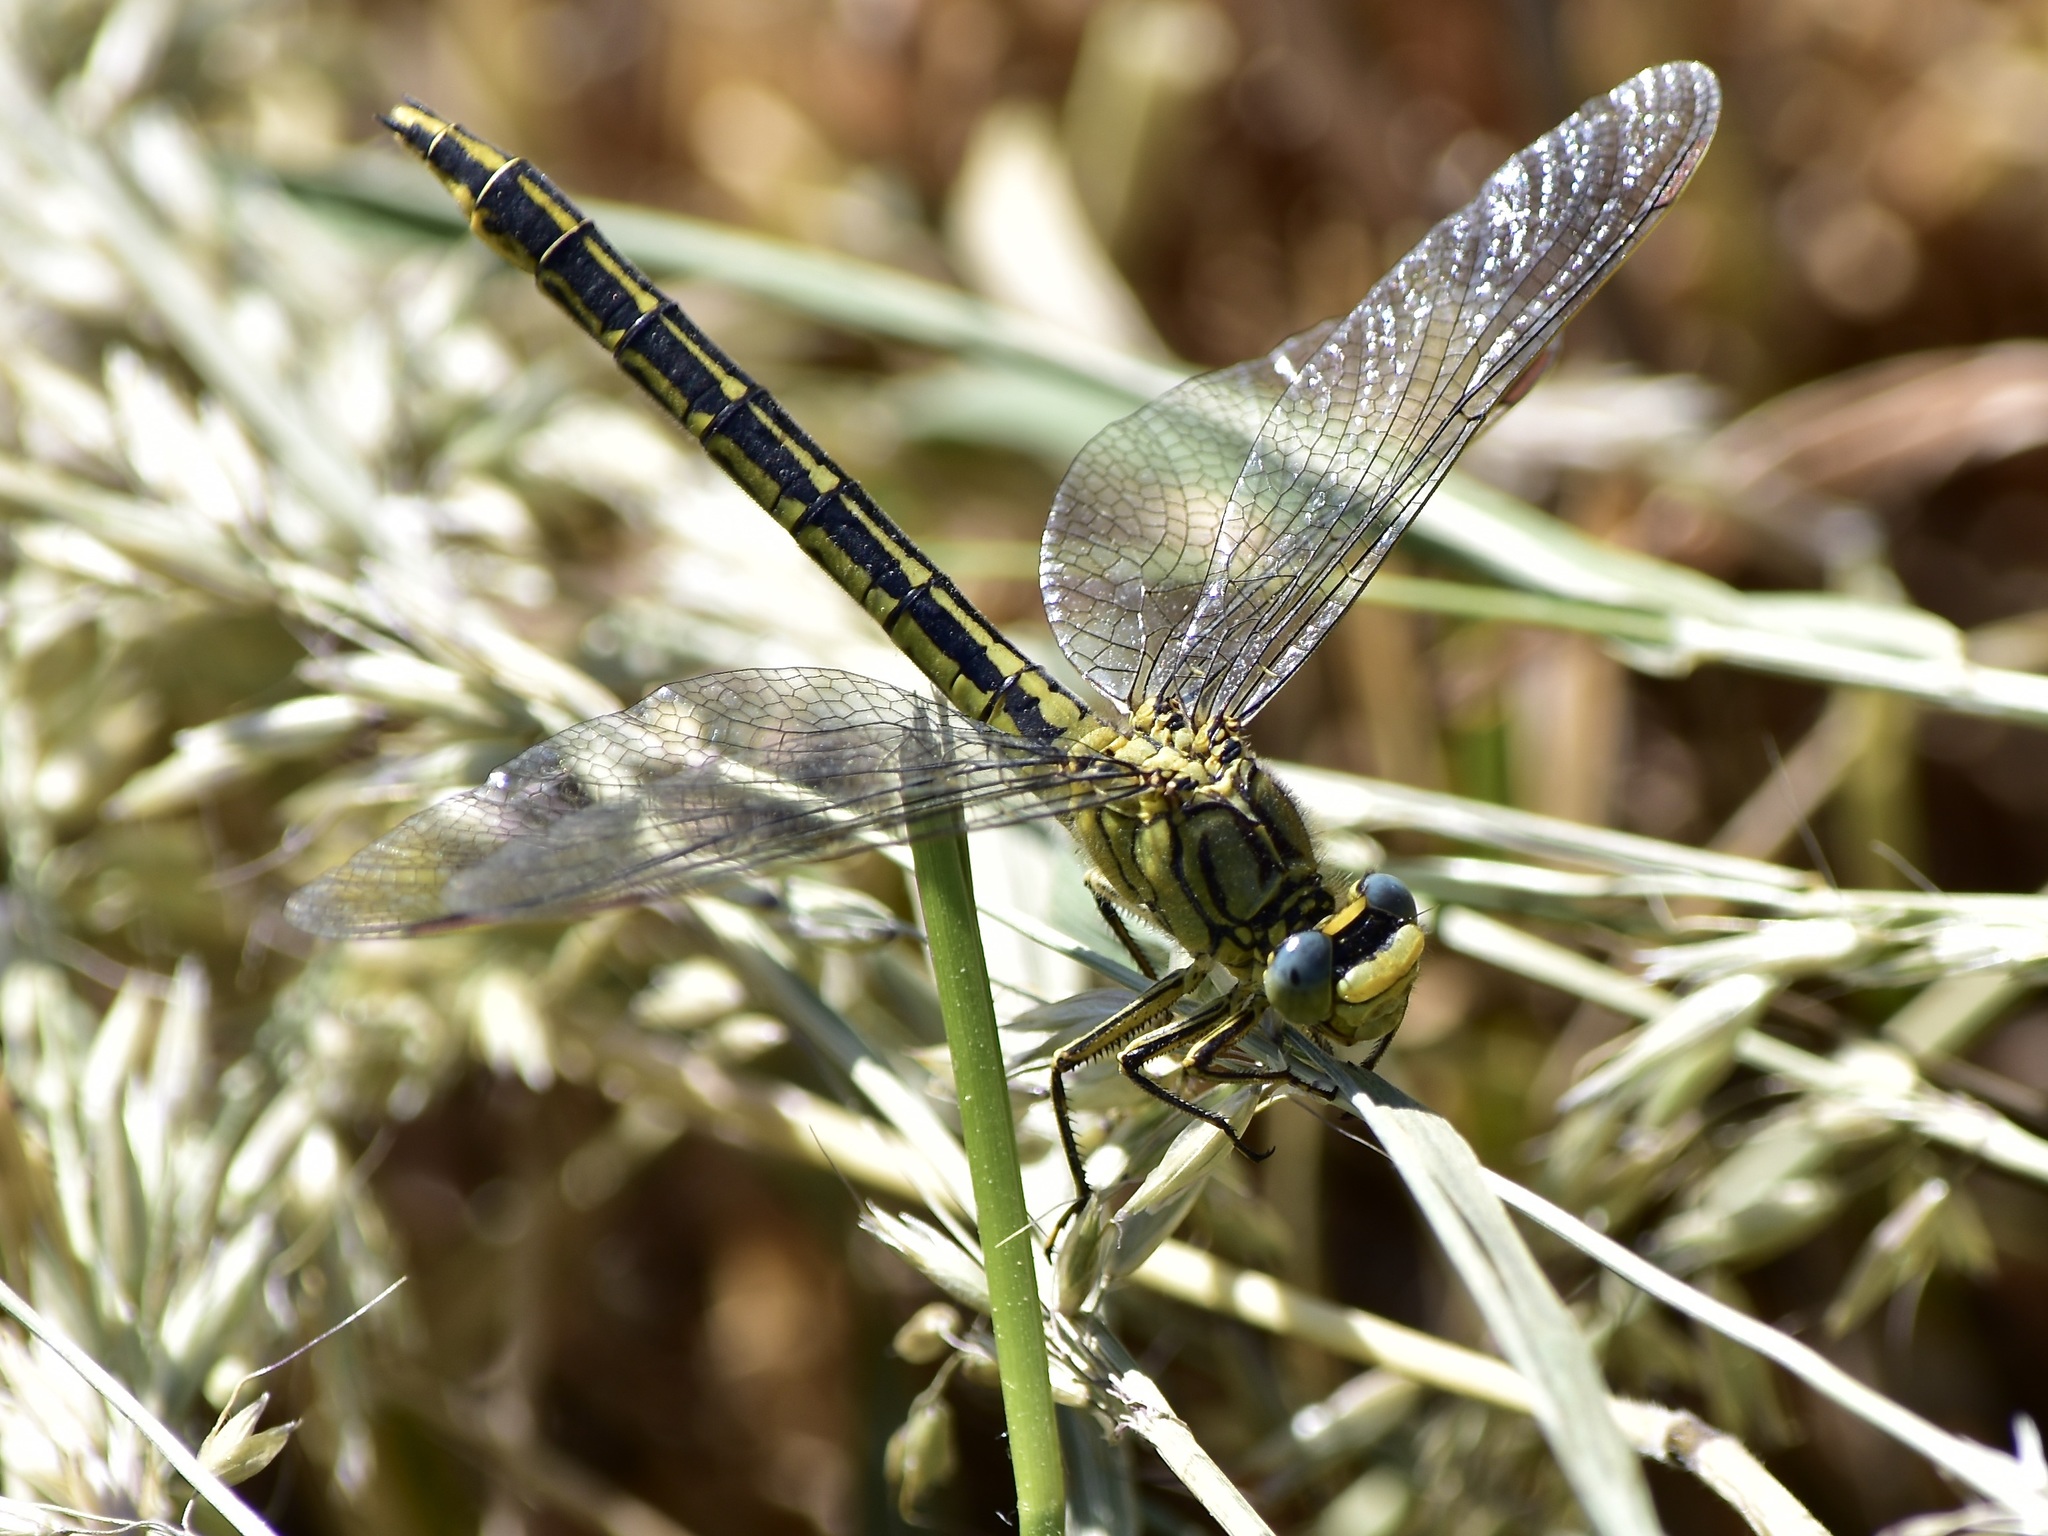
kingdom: Animalia
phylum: Arthropoda
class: Insecta
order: Odonata
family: Gomphidae
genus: Gomphus
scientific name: Gomphus pulchellus
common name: Western clubtail
